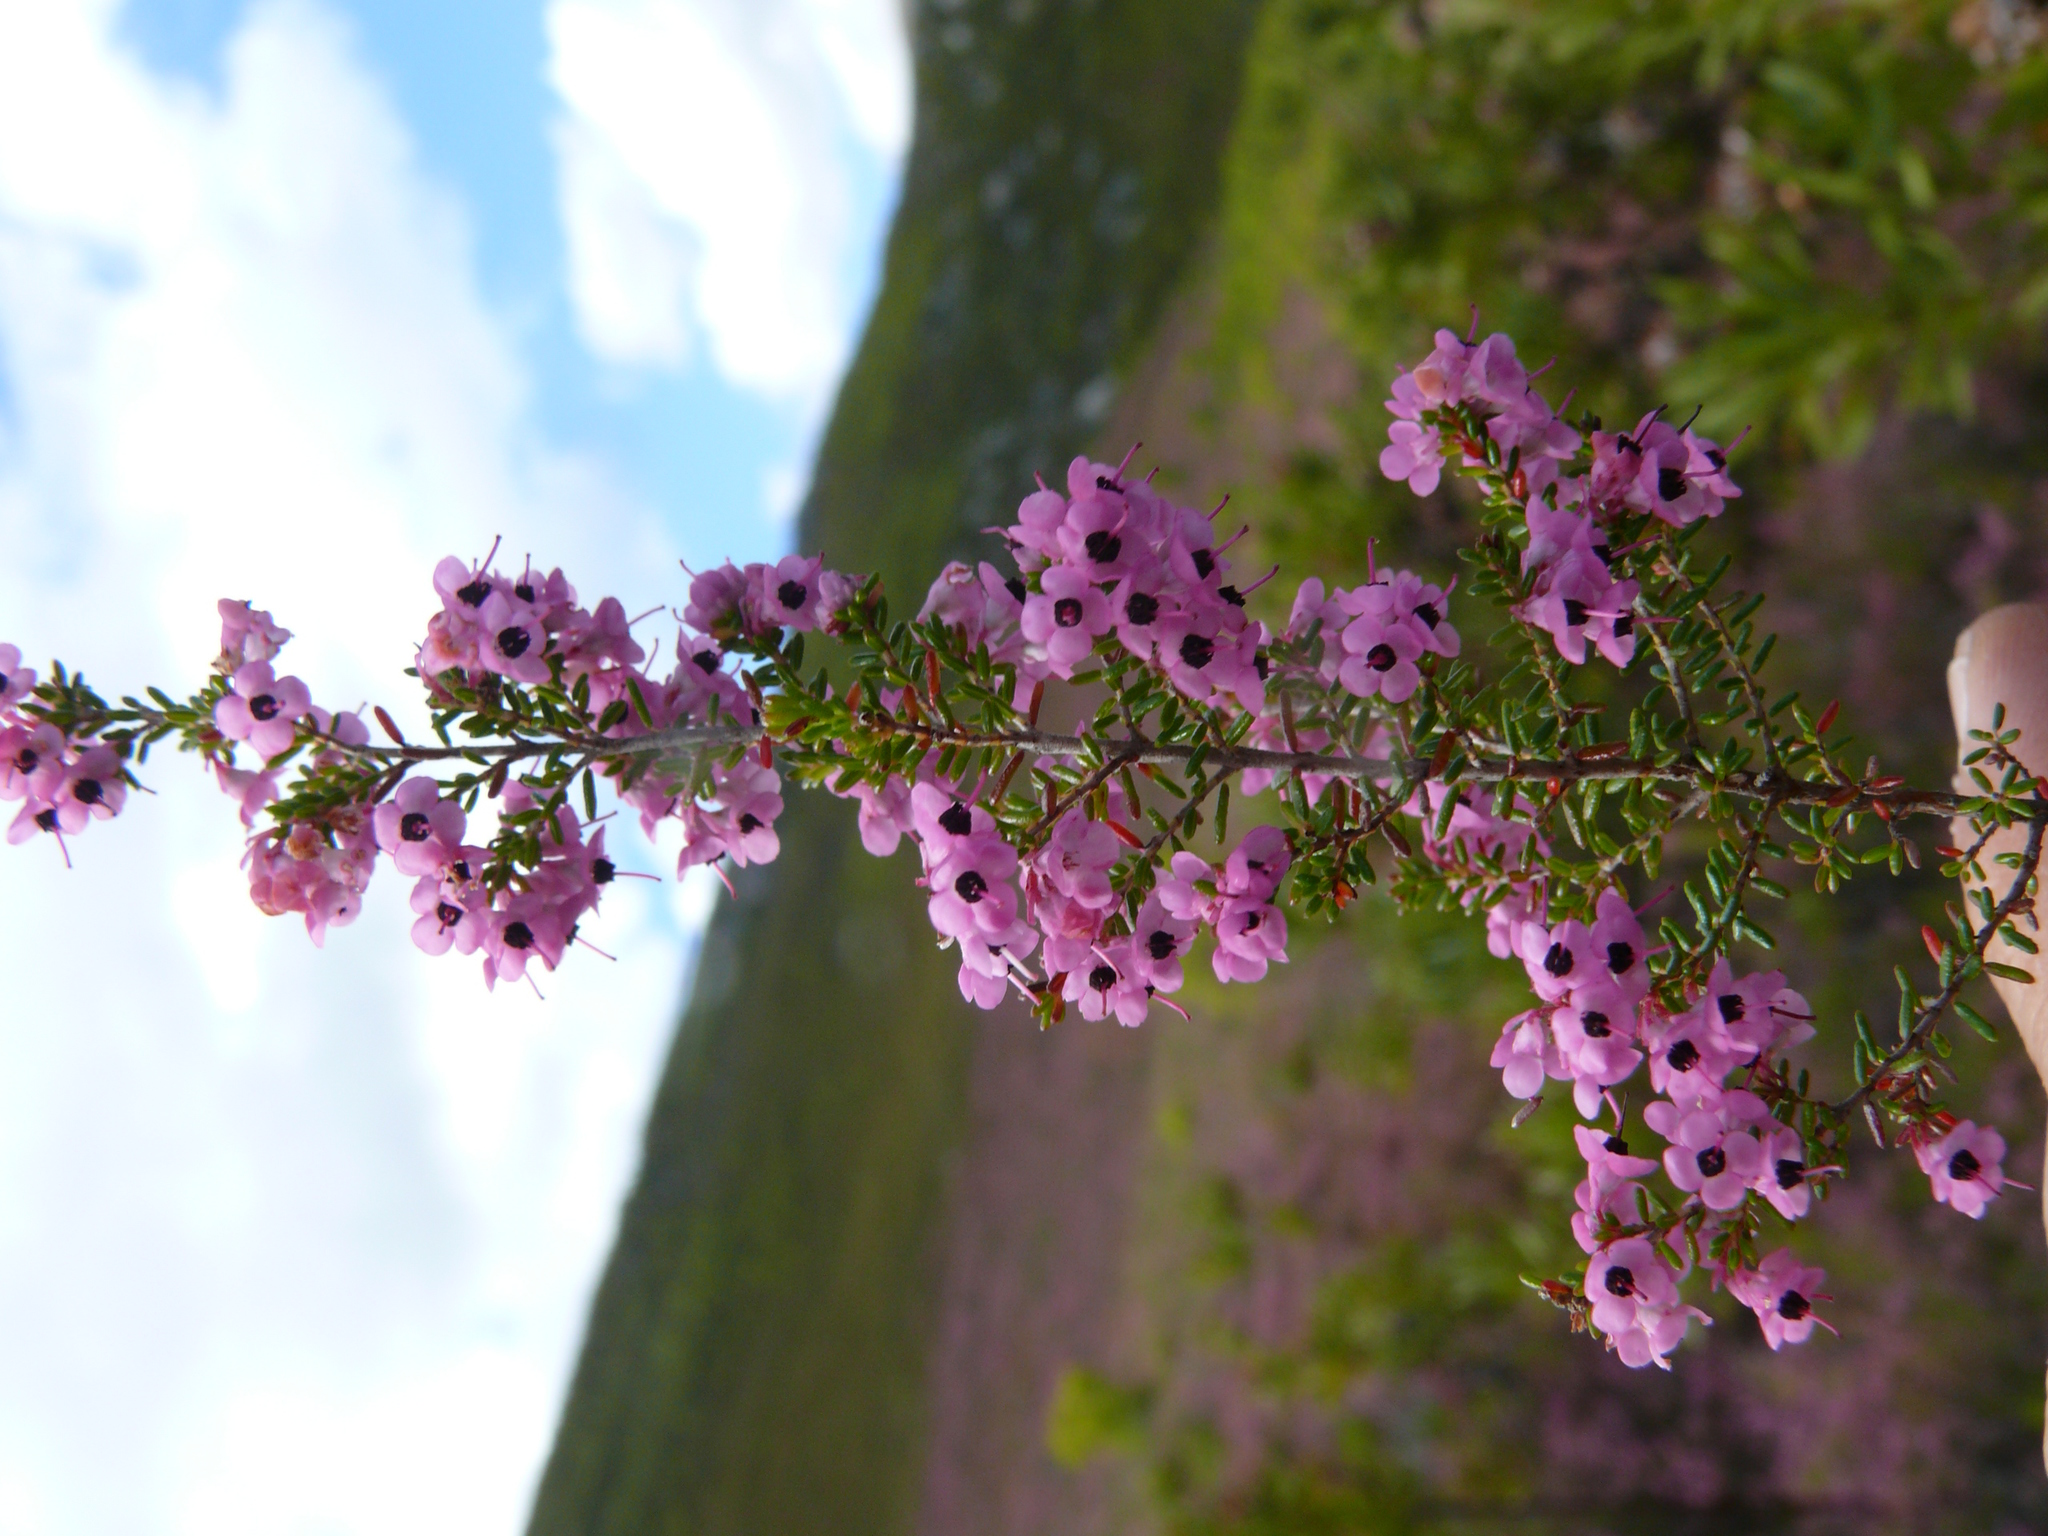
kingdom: Plantae
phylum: Tracheophyta
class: Magnoliopsida
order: Ericales
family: Ericaceae
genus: Erica
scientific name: Erica melanthera
